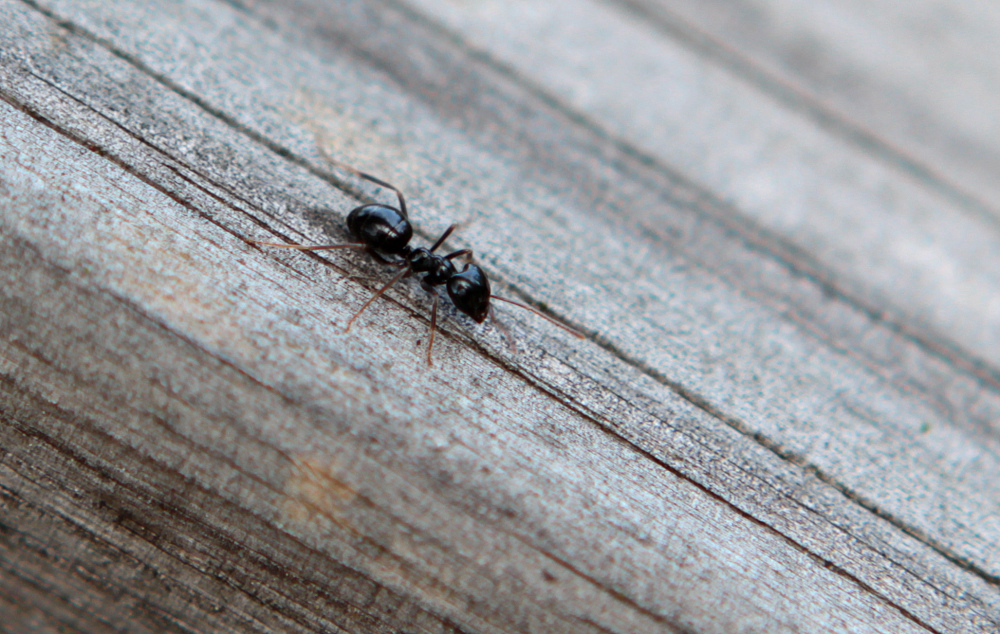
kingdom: Animalia
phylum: Arthropoda
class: Insecta
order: Hymenoptera
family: Formicidae
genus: Lasius
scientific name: Lasius fuliginosus
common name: Jet ant
